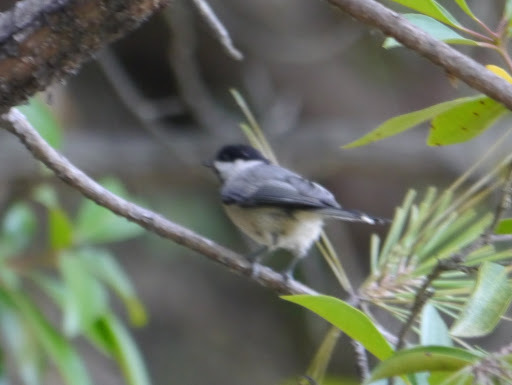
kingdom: Animalia
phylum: Chordata
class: Aves
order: Passeriformes
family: Paridae
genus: Poecile
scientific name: Poecile carolinensis
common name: Carolina chickadee
